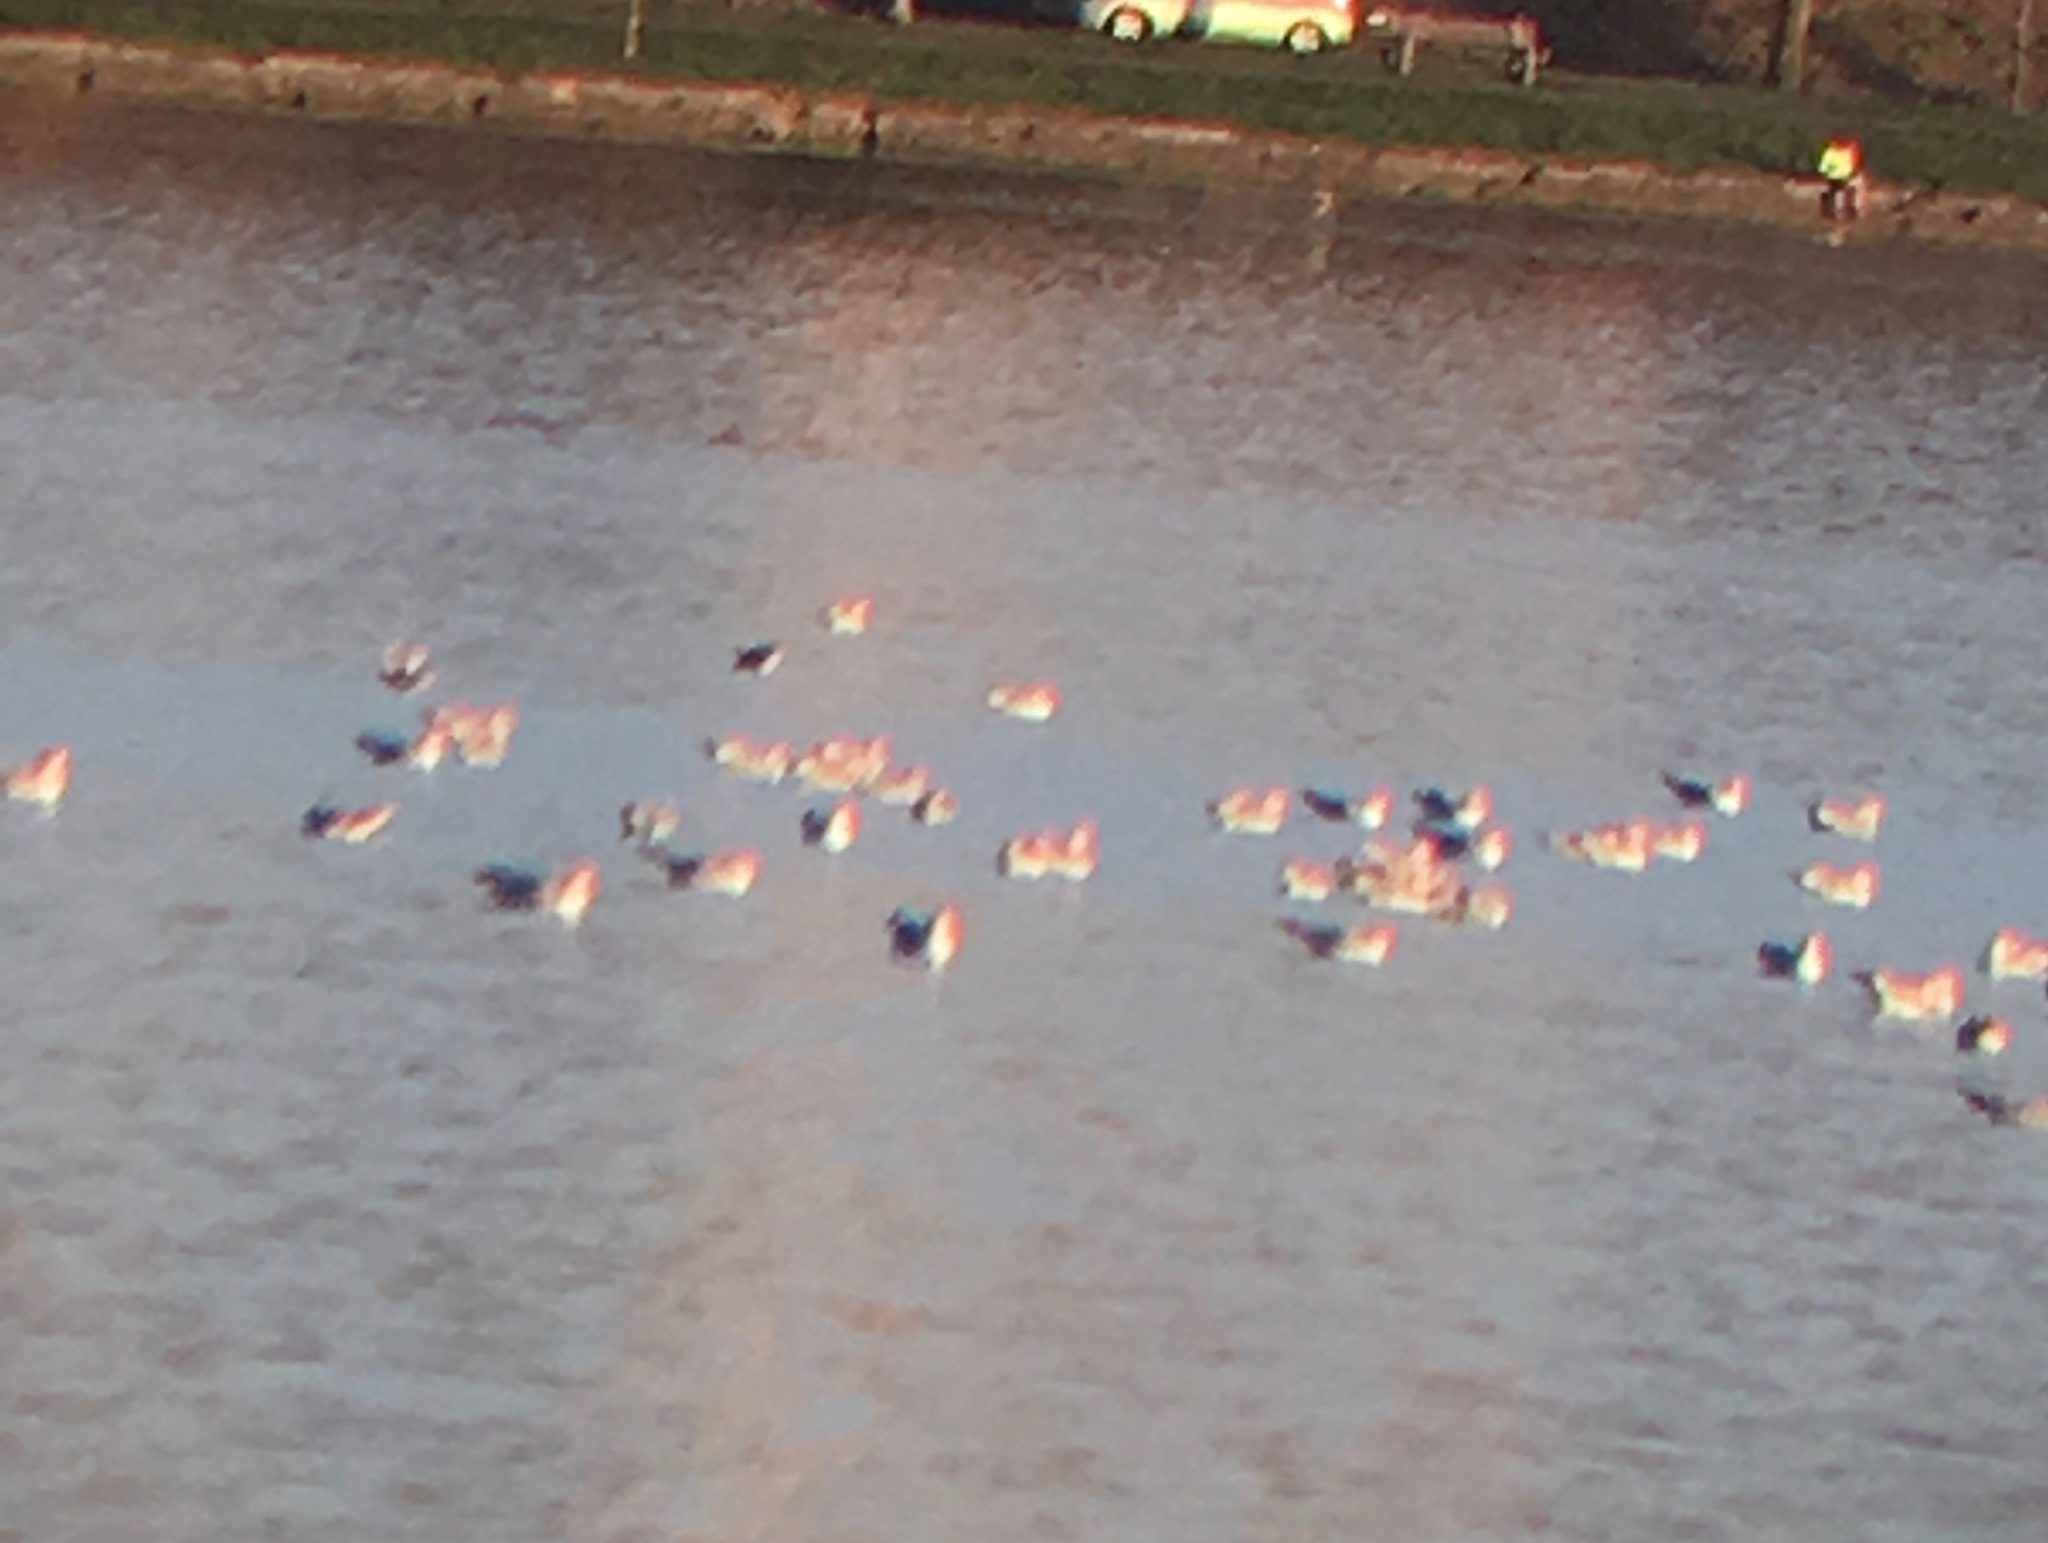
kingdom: Animalia
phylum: Chordata
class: Aves
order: Charadriiformes
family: Laridae
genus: Larus
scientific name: Larus delawarensis
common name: Ring-billed gull
